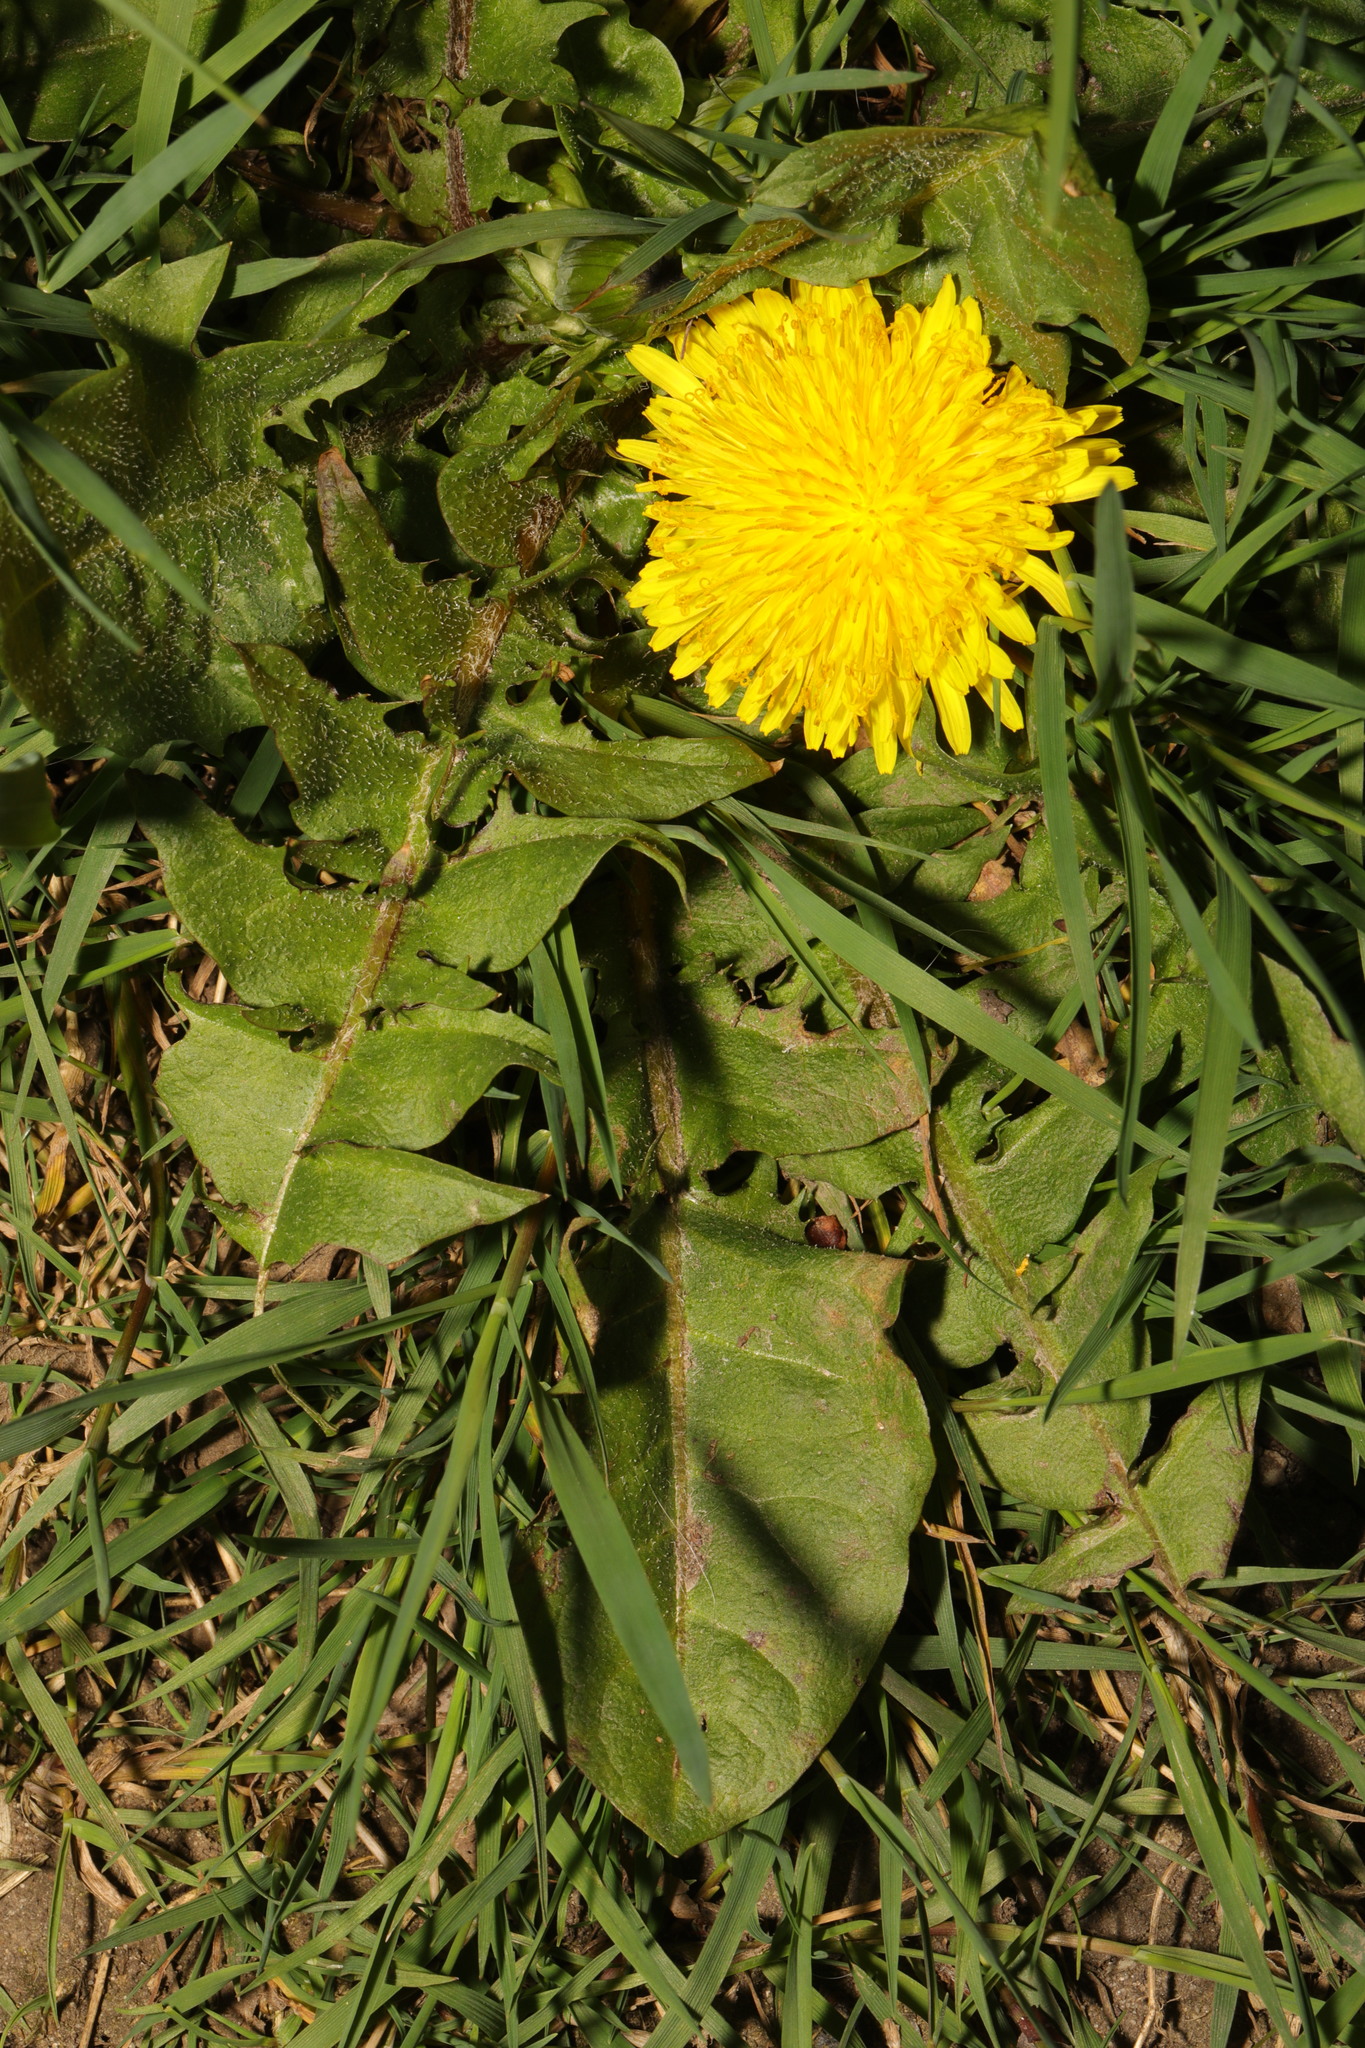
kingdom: Plantae
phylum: Tracheophyta
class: Magnoliopsida
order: Asterales
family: Asteraceae
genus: Taraxacum
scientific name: Taraxacum officinale
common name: Common dandelion
